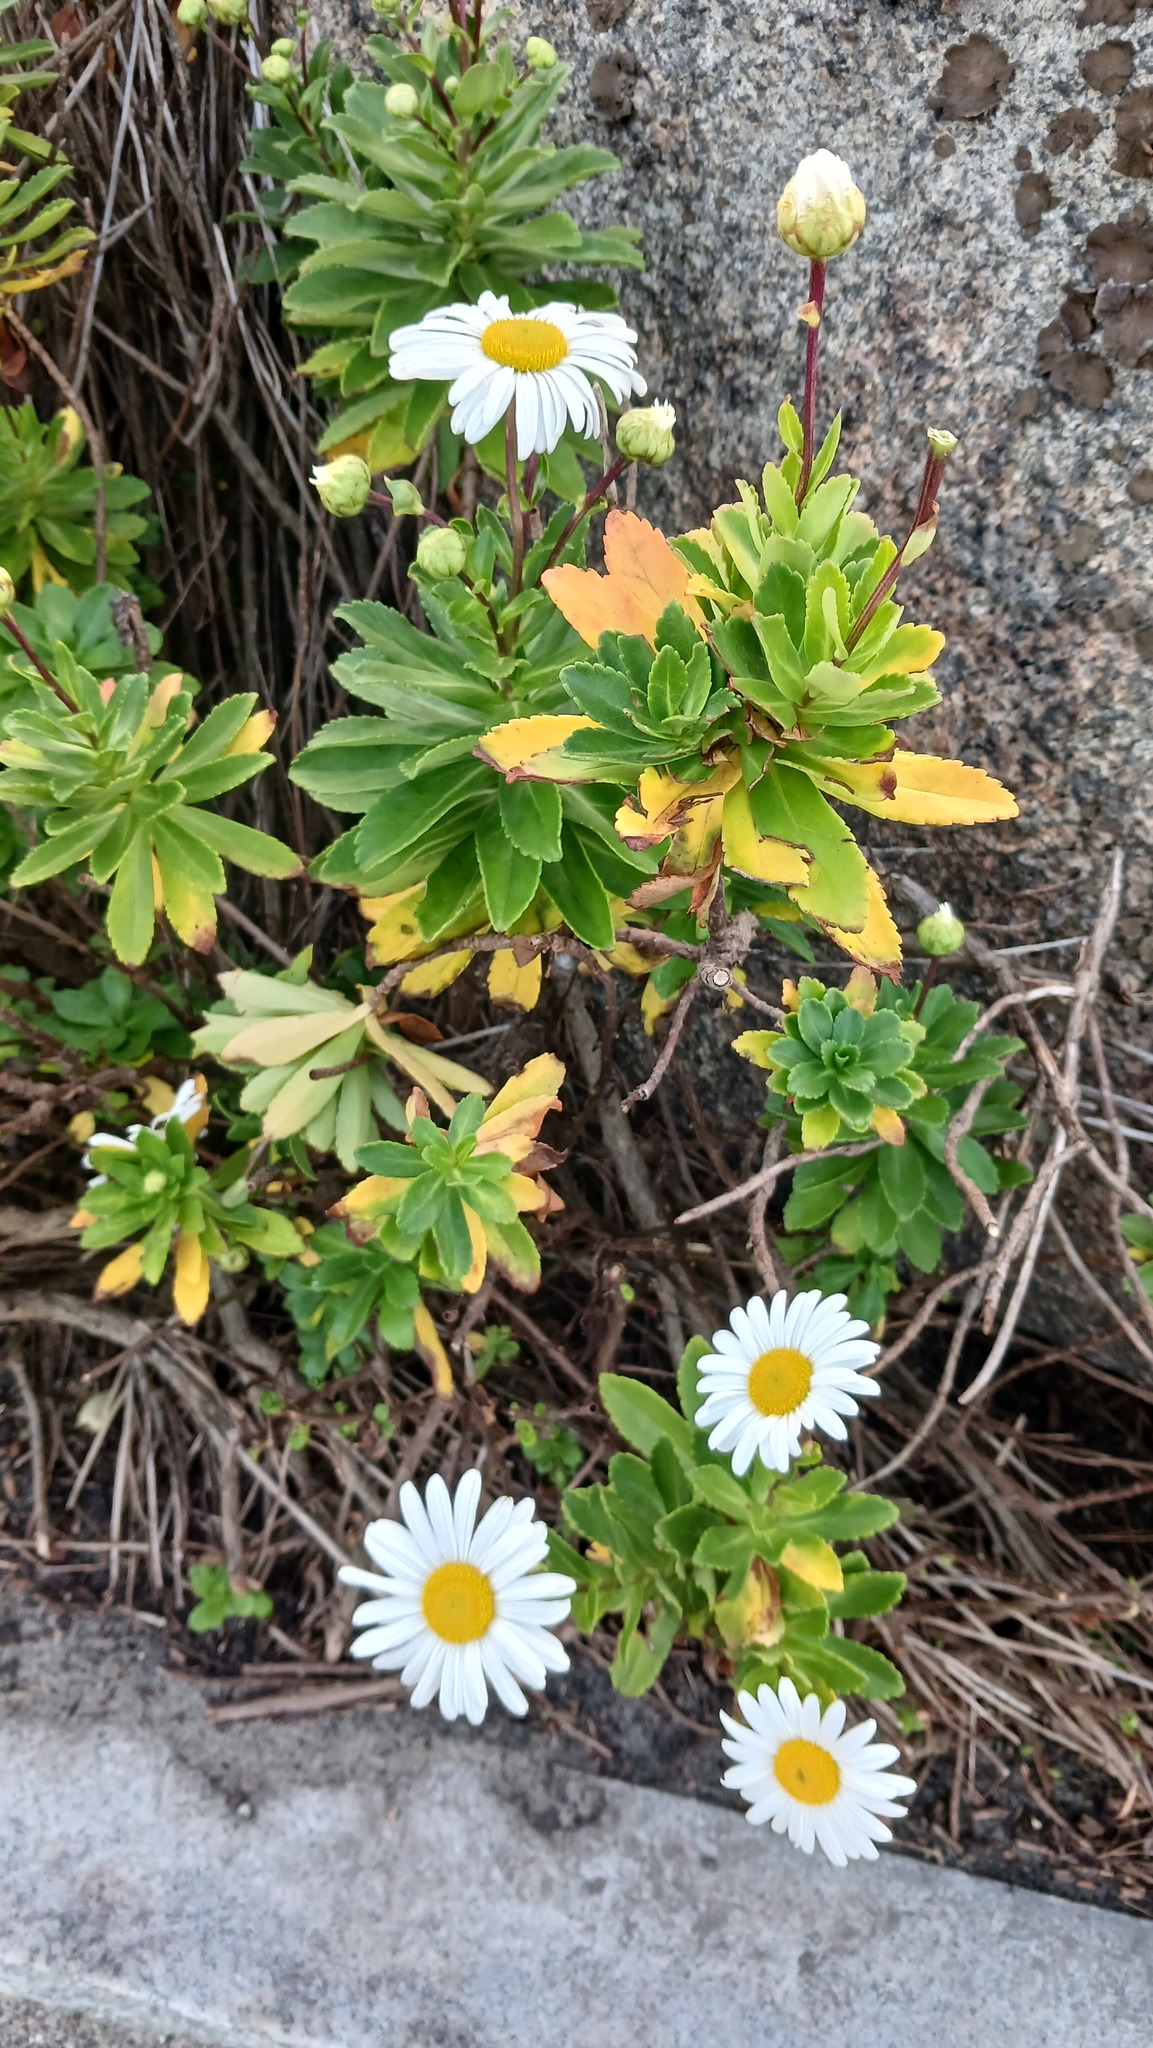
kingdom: Plantae
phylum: Tracheophyta
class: Magnoliopsida
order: Asterales
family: Asteraceae
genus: Nipponanthemum
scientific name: Nipponanthemum nipponicum
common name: Nippon daisy
